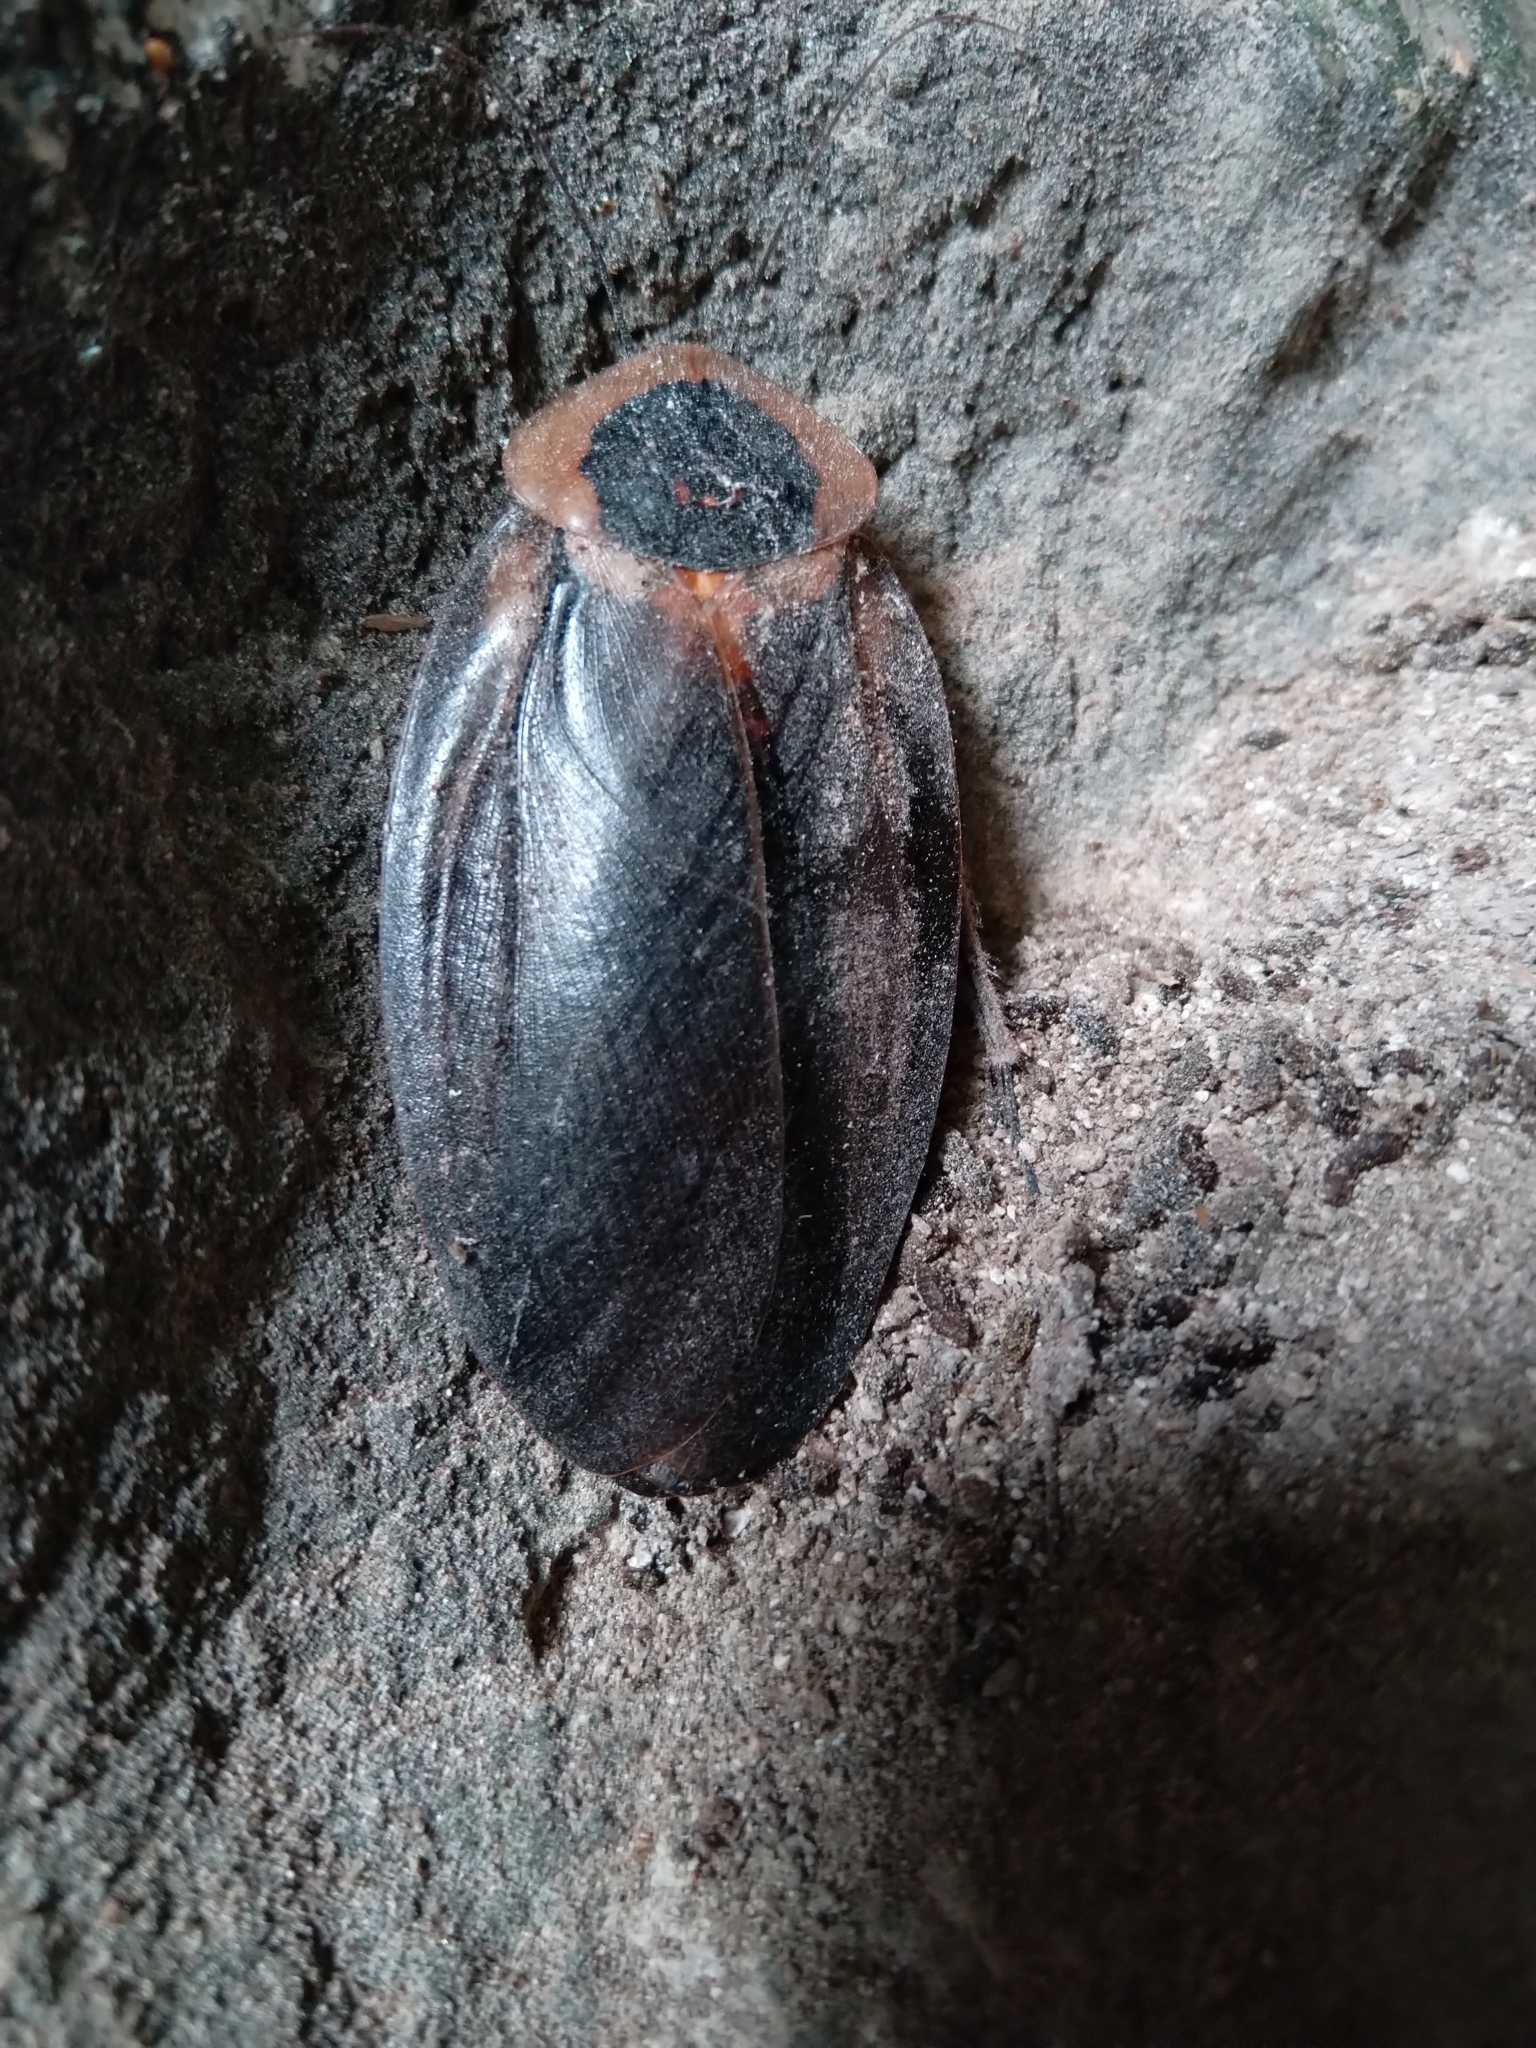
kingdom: Animalia
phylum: Arthropoda
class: Insecta
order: Blattodea
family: Blaberidae
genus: Blaberus
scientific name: Blaberus craniifer
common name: Death's head cockroach
